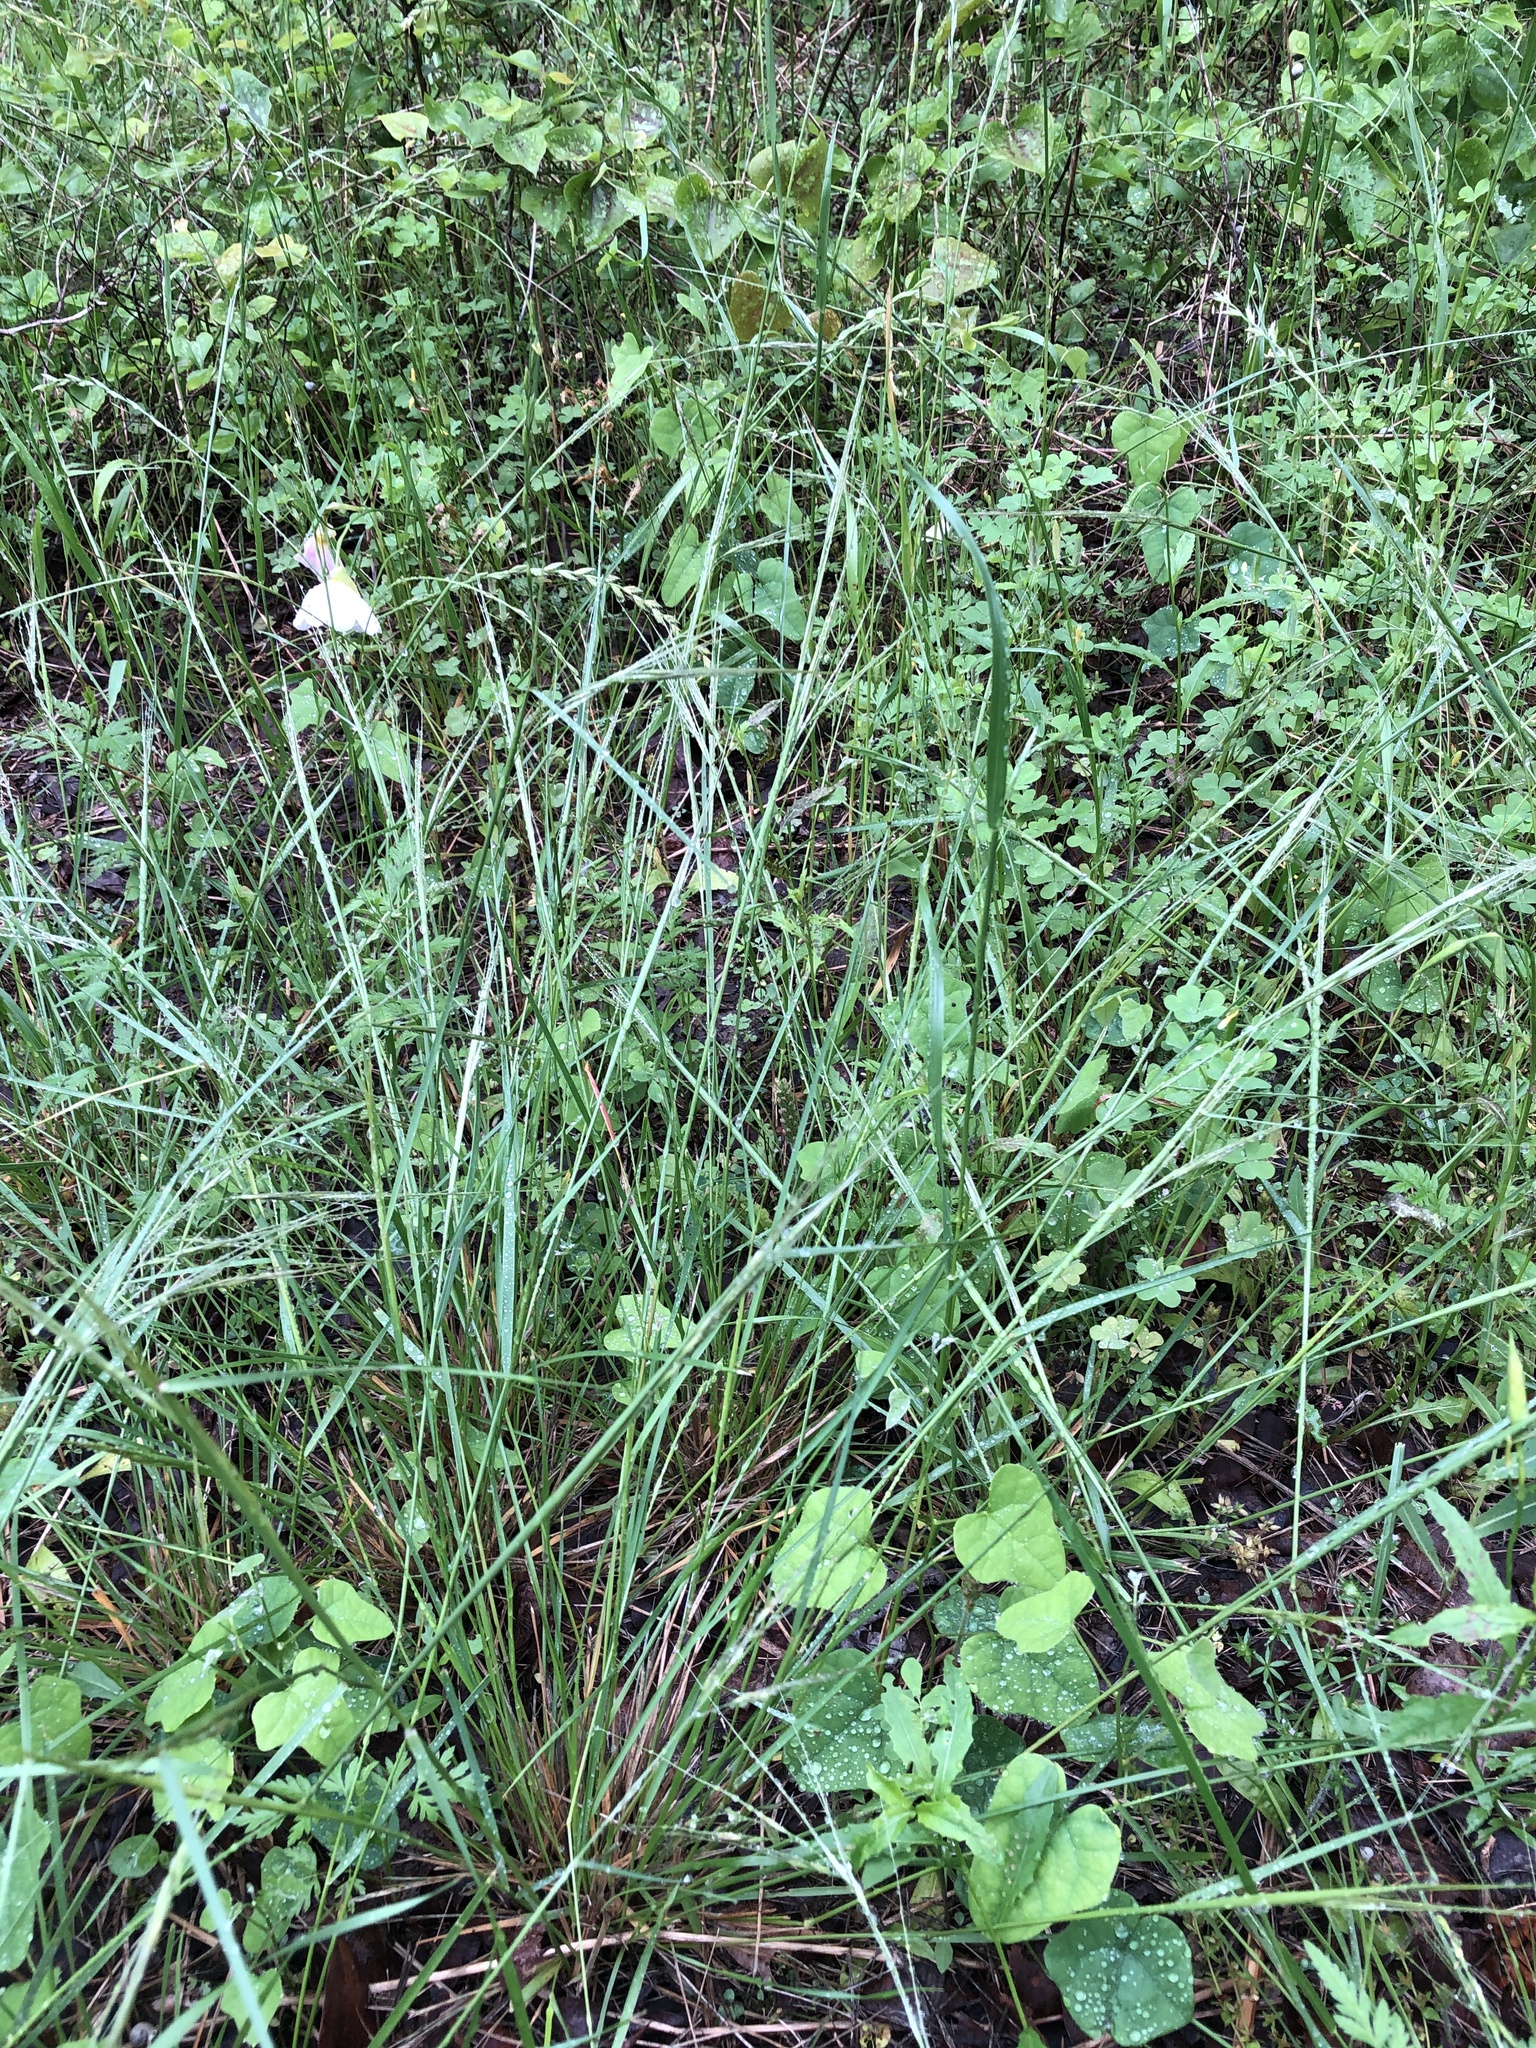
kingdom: Plantae
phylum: Tracheophyta
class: Liliopsida
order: Poales
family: Poaceae
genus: Nassella
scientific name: Nassella leucotricha
